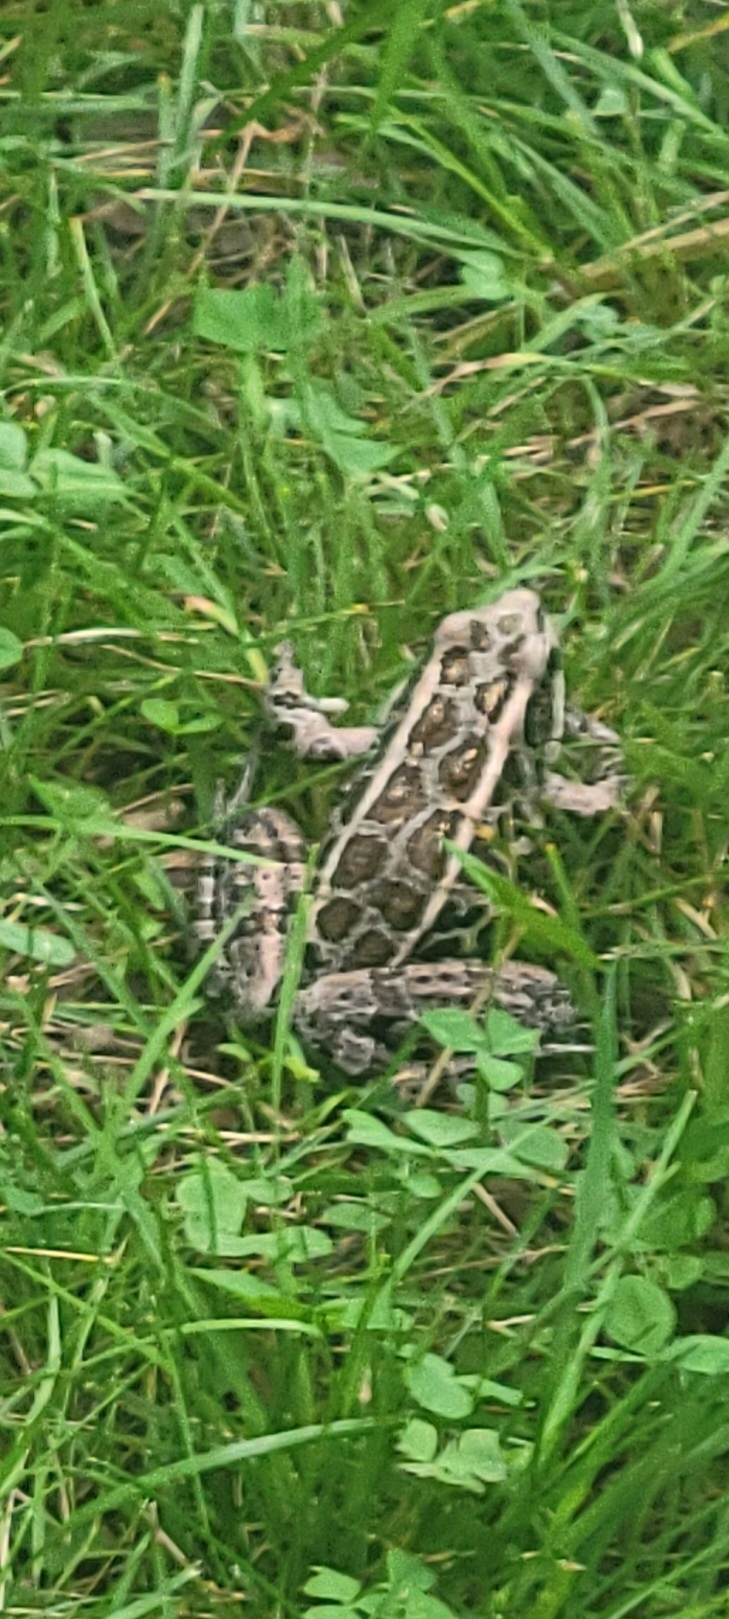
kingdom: Animalia
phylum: Chordata
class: Amphibia
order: Anura
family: Ranidae
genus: Lithobates
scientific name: Lithobates palustris
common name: Pickerel frog
